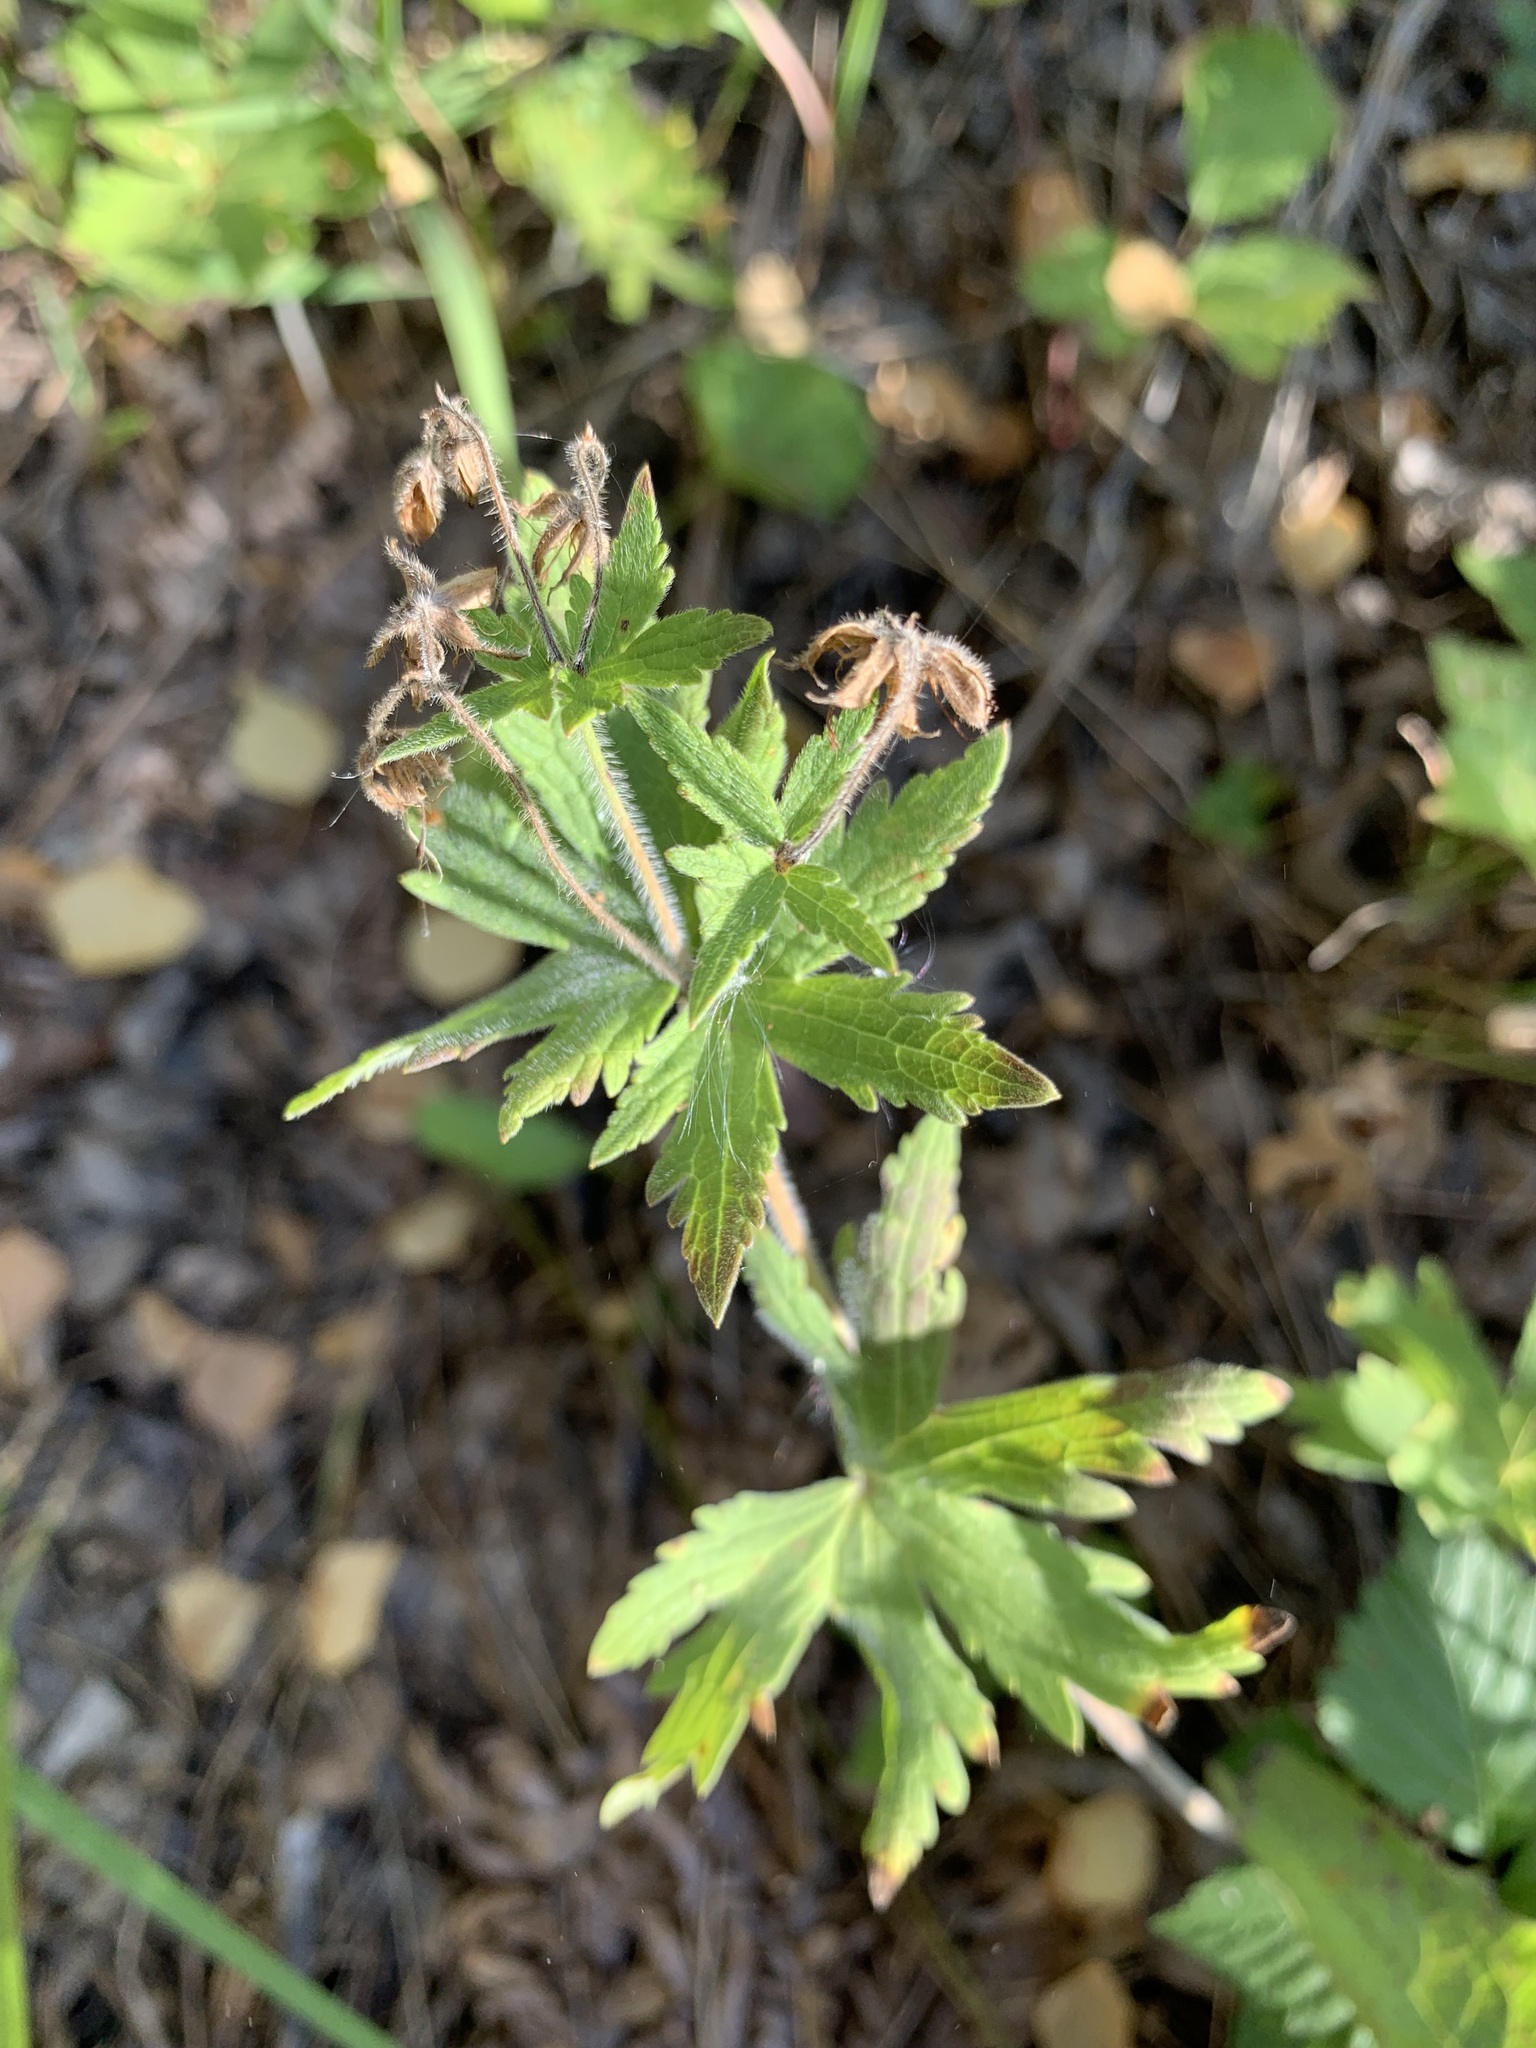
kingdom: Plantae
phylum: Tracheophyta
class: Magnoliopsida
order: Geraniales
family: Geraniaceae
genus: Geranium
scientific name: Geranium sylvaticum
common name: Wood crane's-bill
